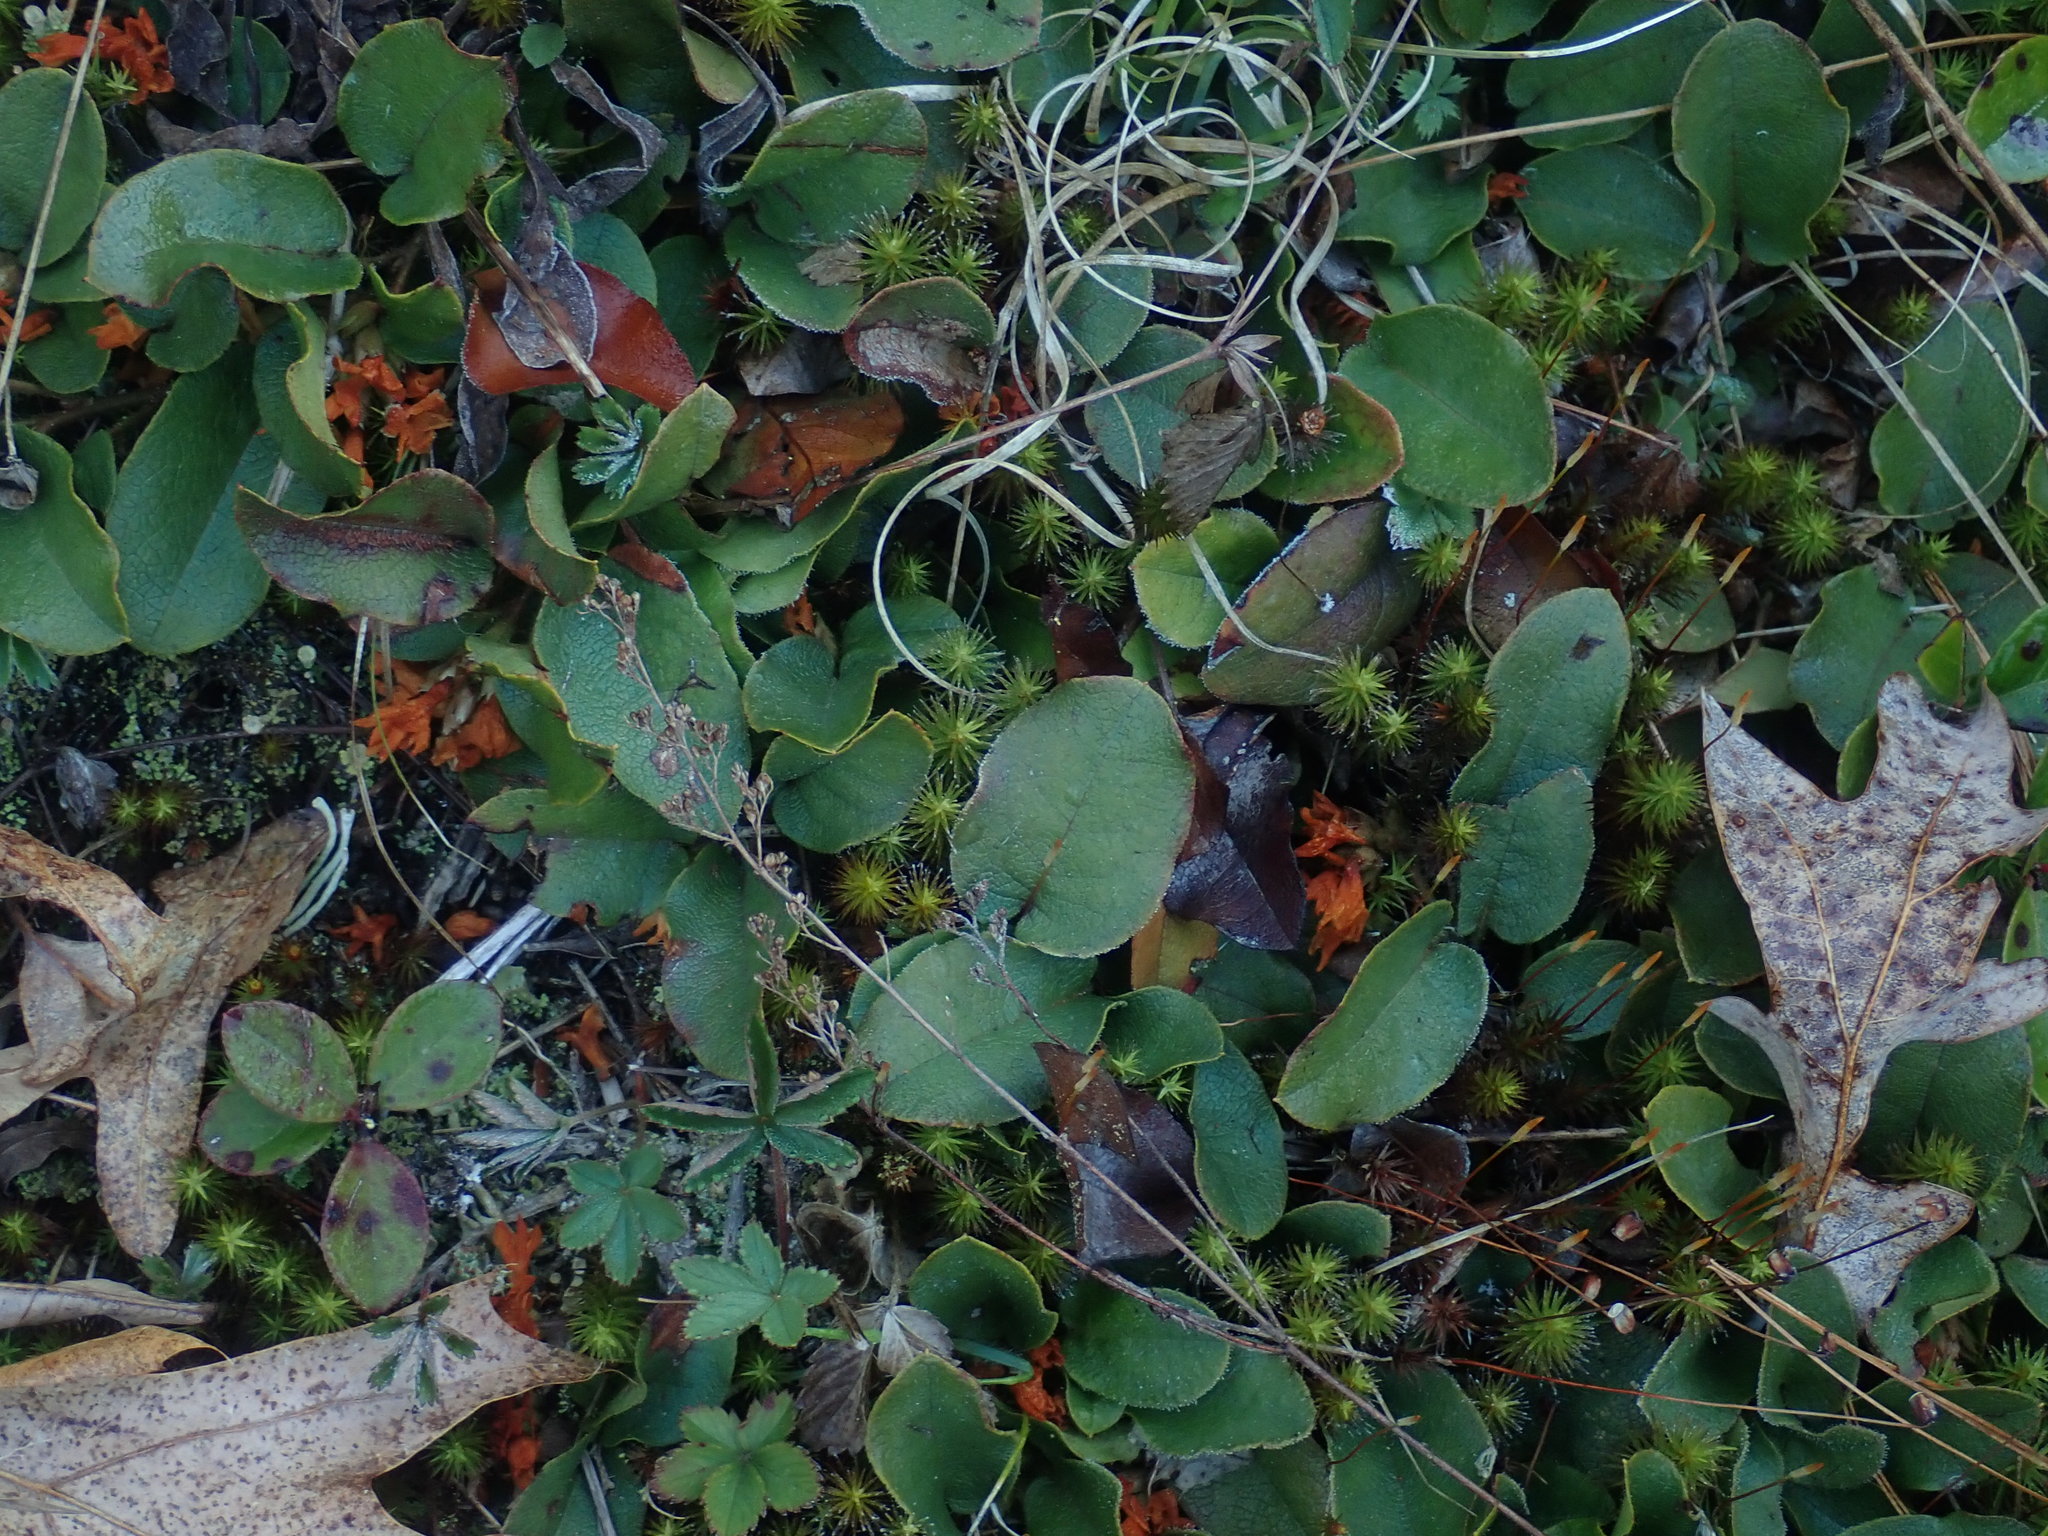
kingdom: Plantae
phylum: Tracheophyta
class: Magnoliopsida
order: Ericales
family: Ericaceae
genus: Epigaea
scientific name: Epigaea repens
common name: Gravelroot
